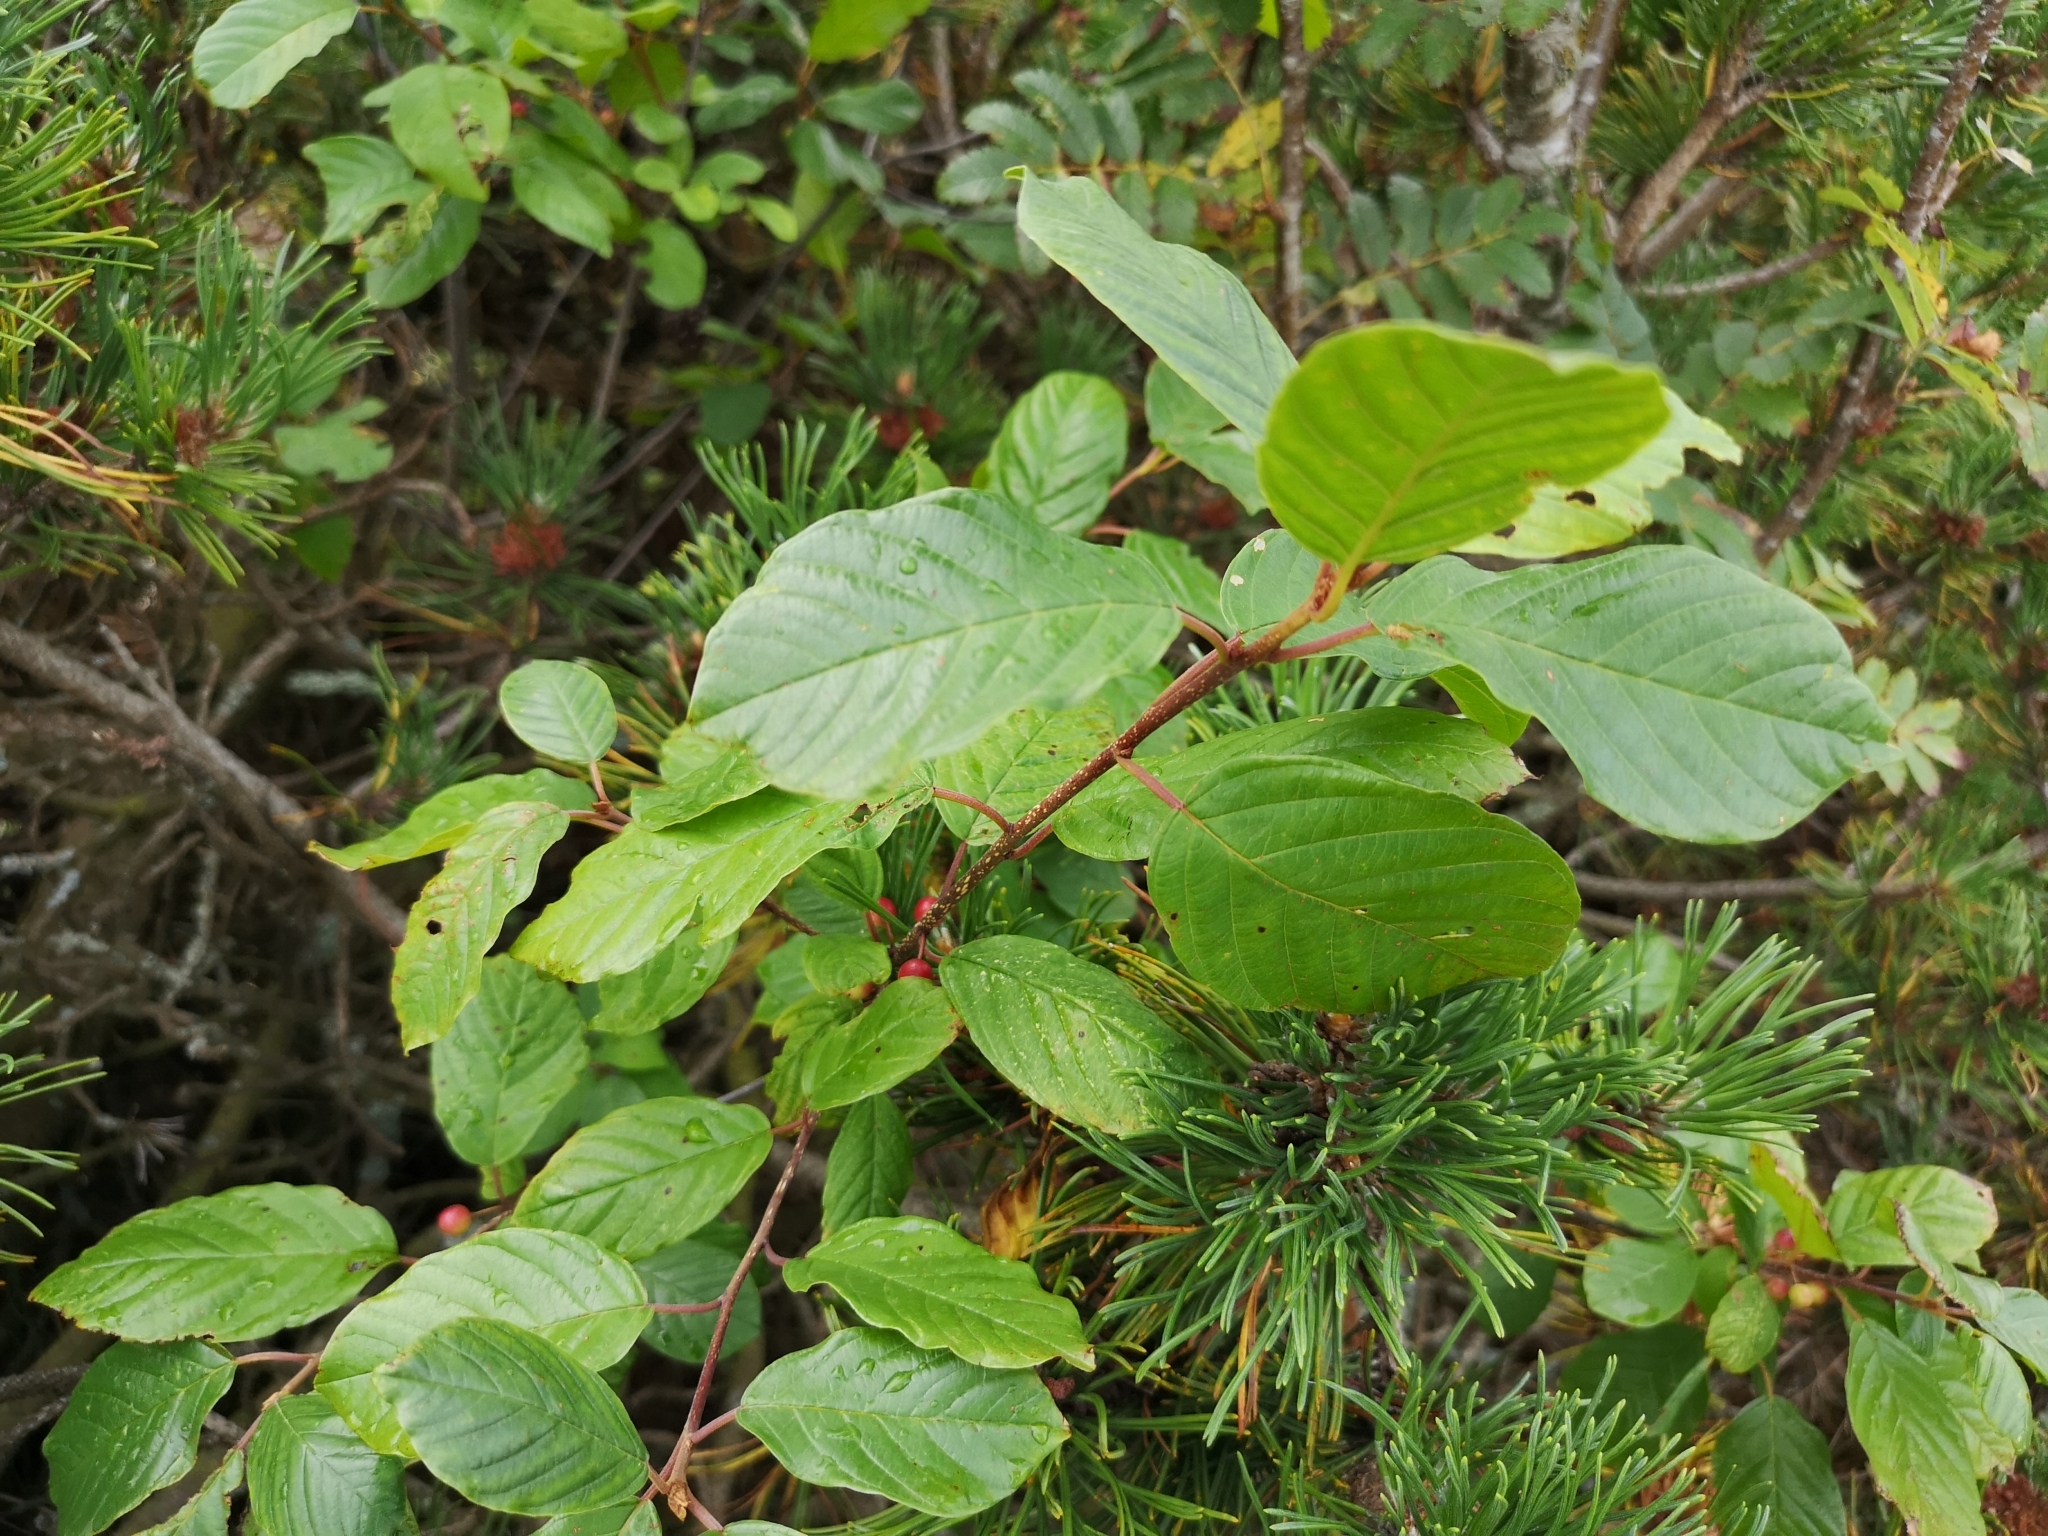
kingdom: Plantae
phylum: Tracheophyta
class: Magnoliopsida
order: Rosales
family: Rhamnaceae
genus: Frangula
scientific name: Frangula alnus
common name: Alder buckthorn
